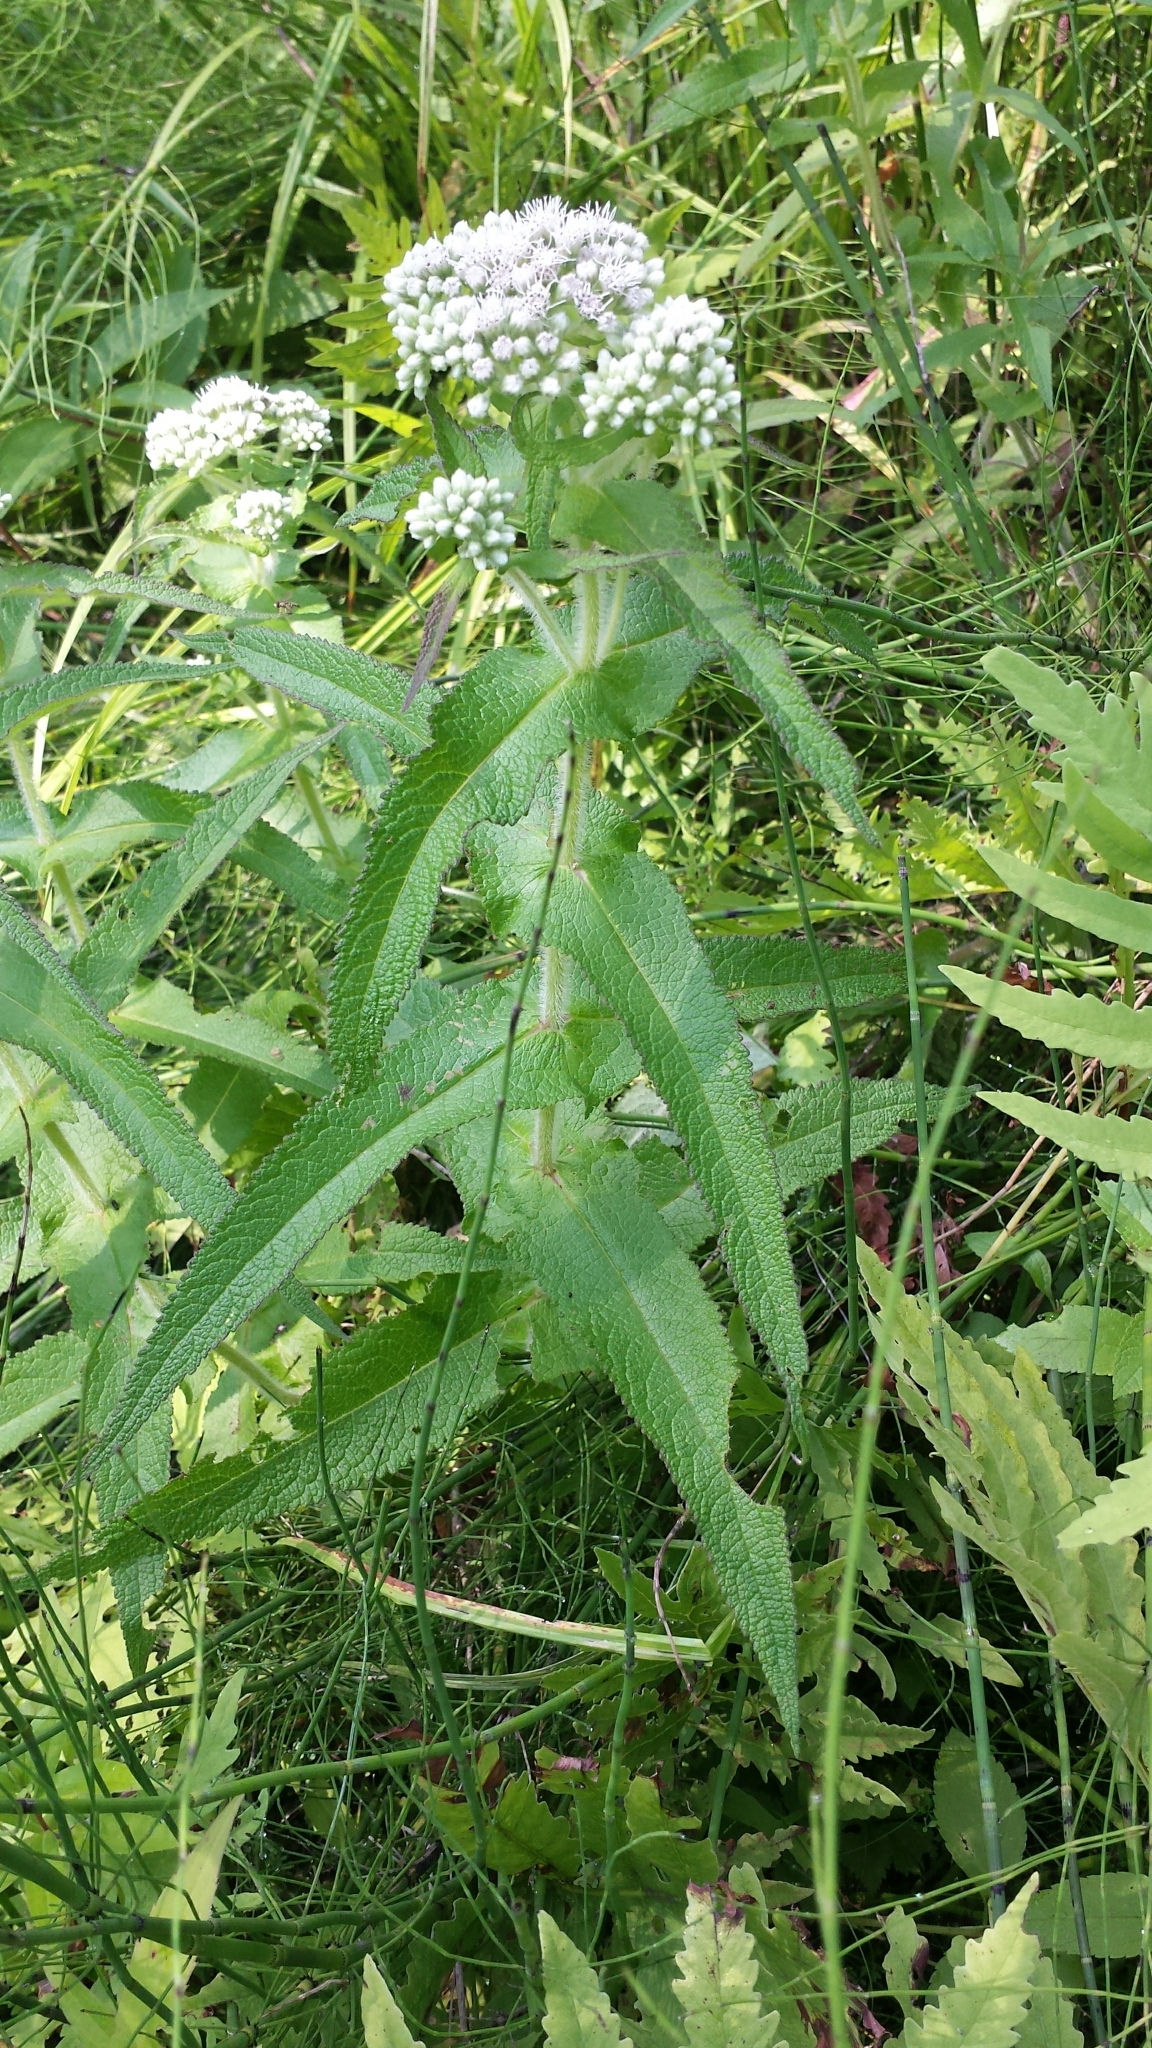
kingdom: Plantae
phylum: Tracheophyta
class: Magnoliopsida
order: Asterales
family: Asteraceae
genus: Eupatorium
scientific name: Eupatorium perfoliatum
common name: Boneset
